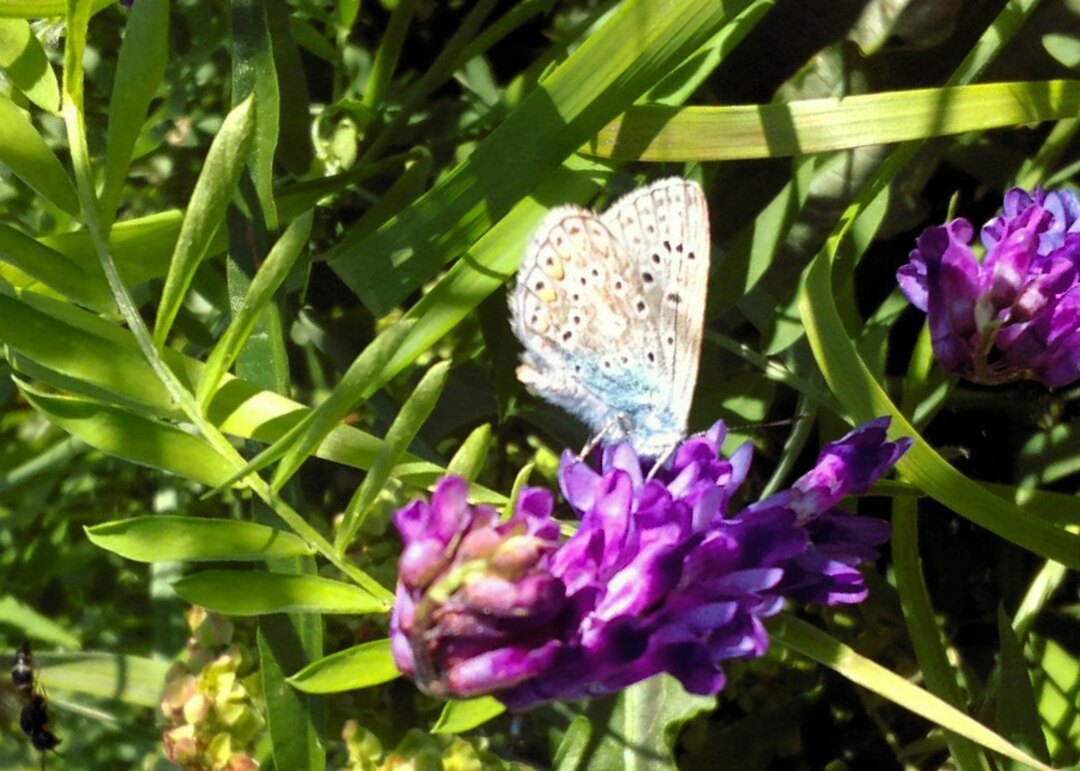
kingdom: Animalia
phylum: Arthropoda
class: Insecta
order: Lepidoptera
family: Lycaenidae
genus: Polyommatus
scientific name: Polyommatus icarus
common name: Common blue
